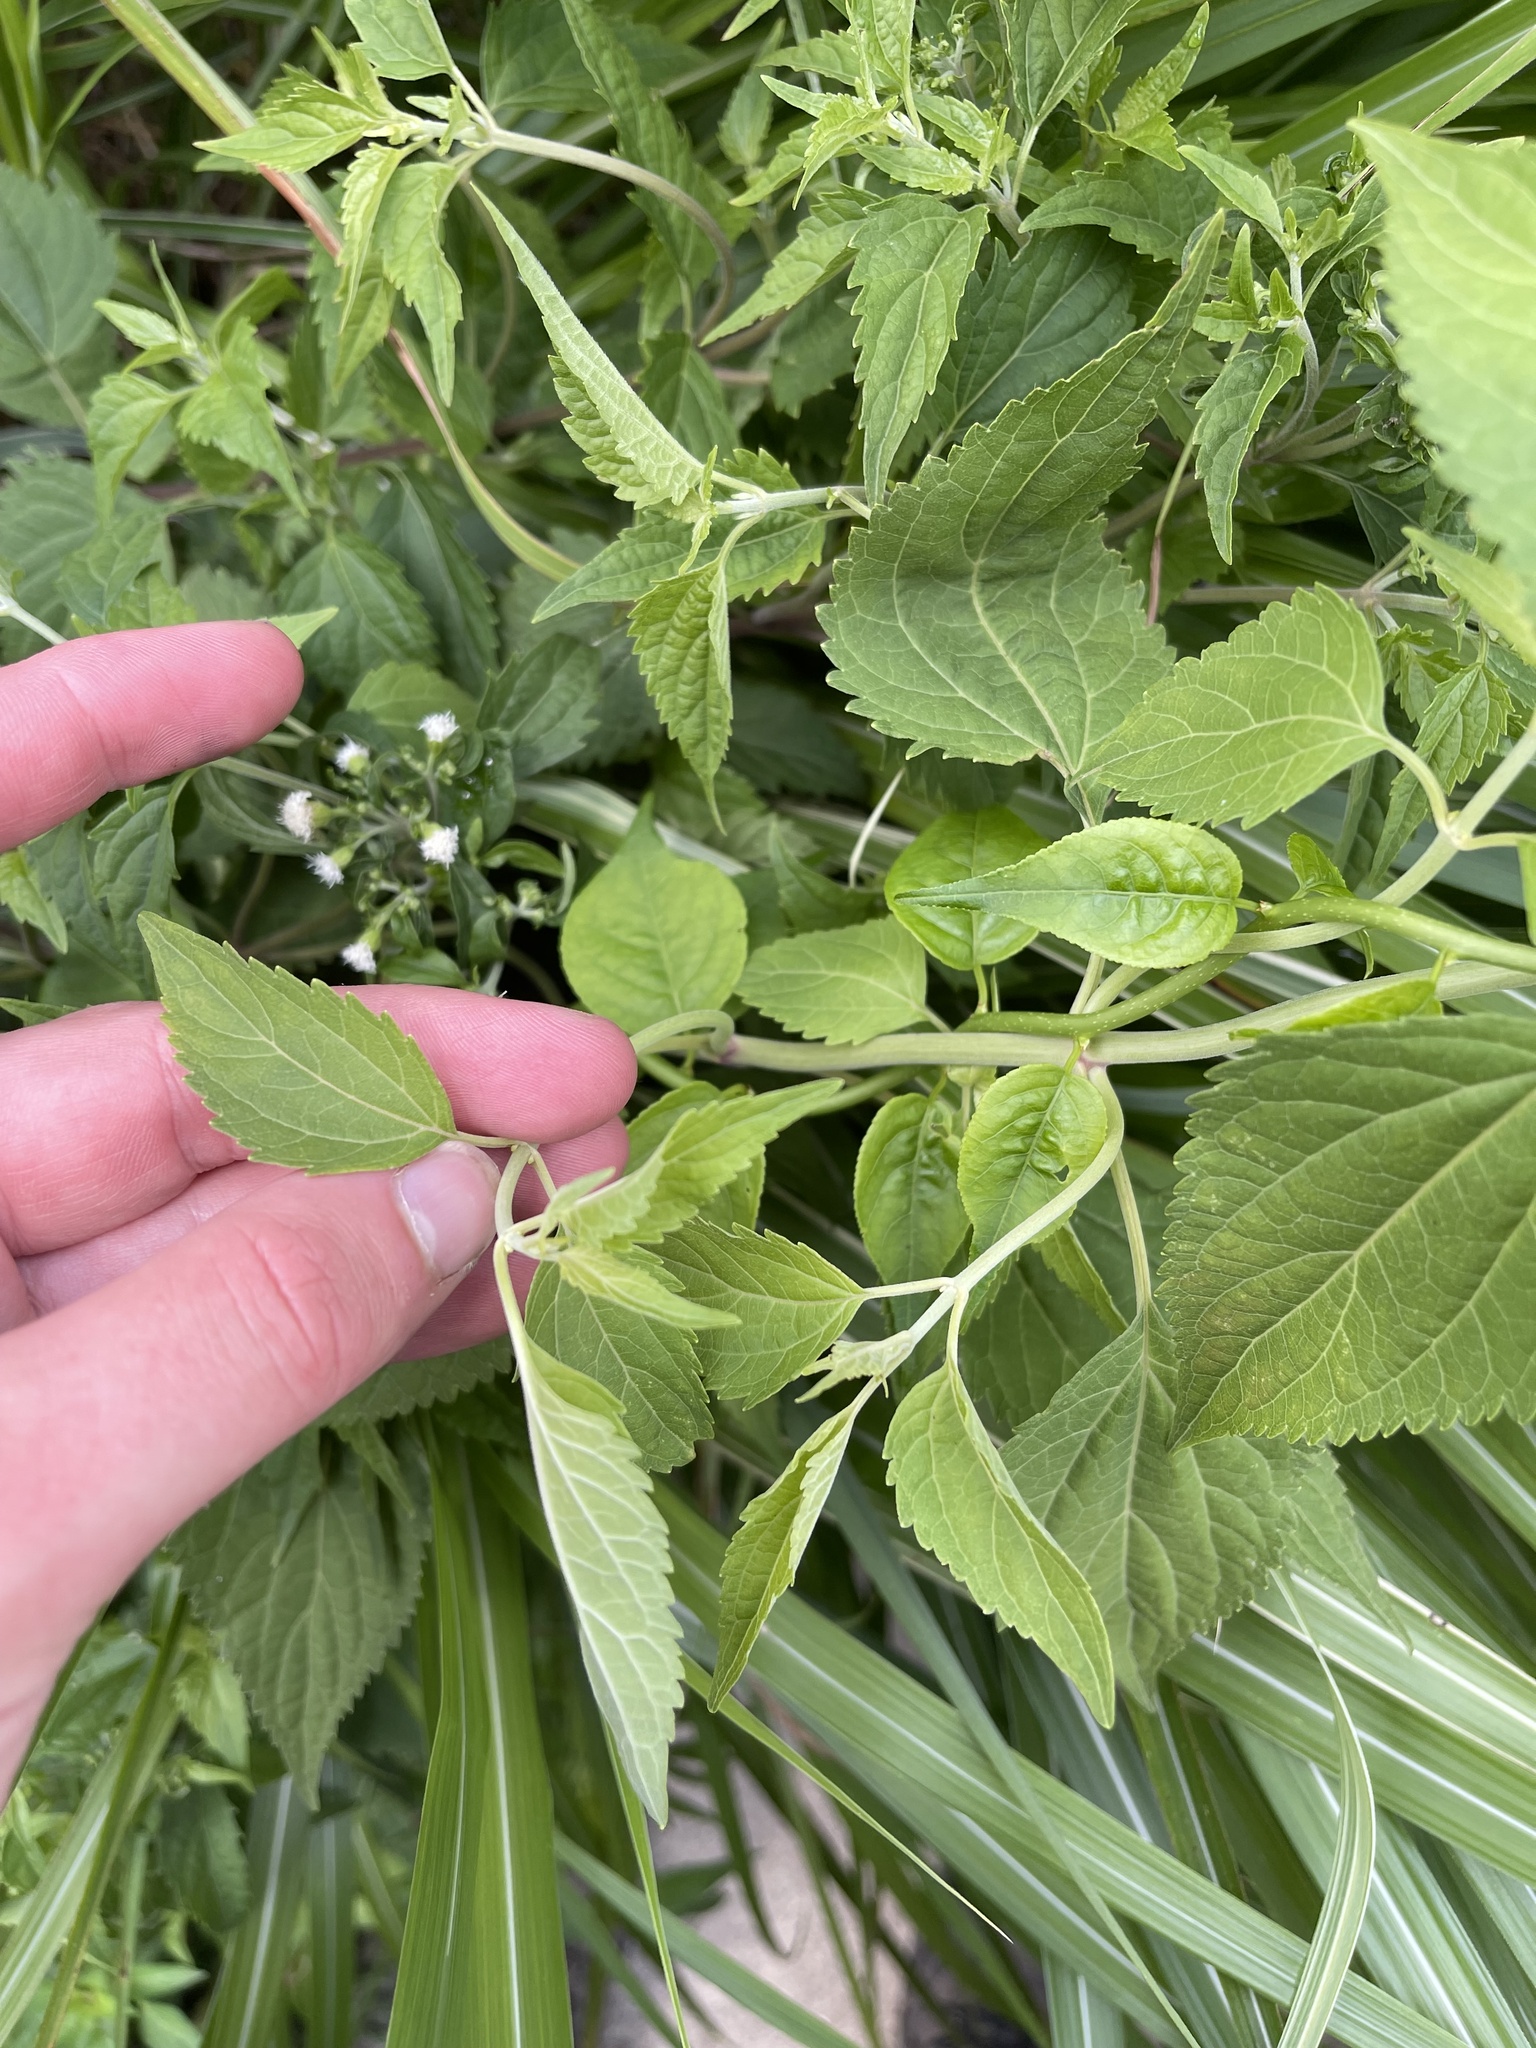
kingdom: Plantae
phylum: Tracheophyta
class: Magnoliopsida
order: Asterales
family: Asteraceae
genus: Ageratina
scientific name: Ageratina altissima
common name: White snakeroot
